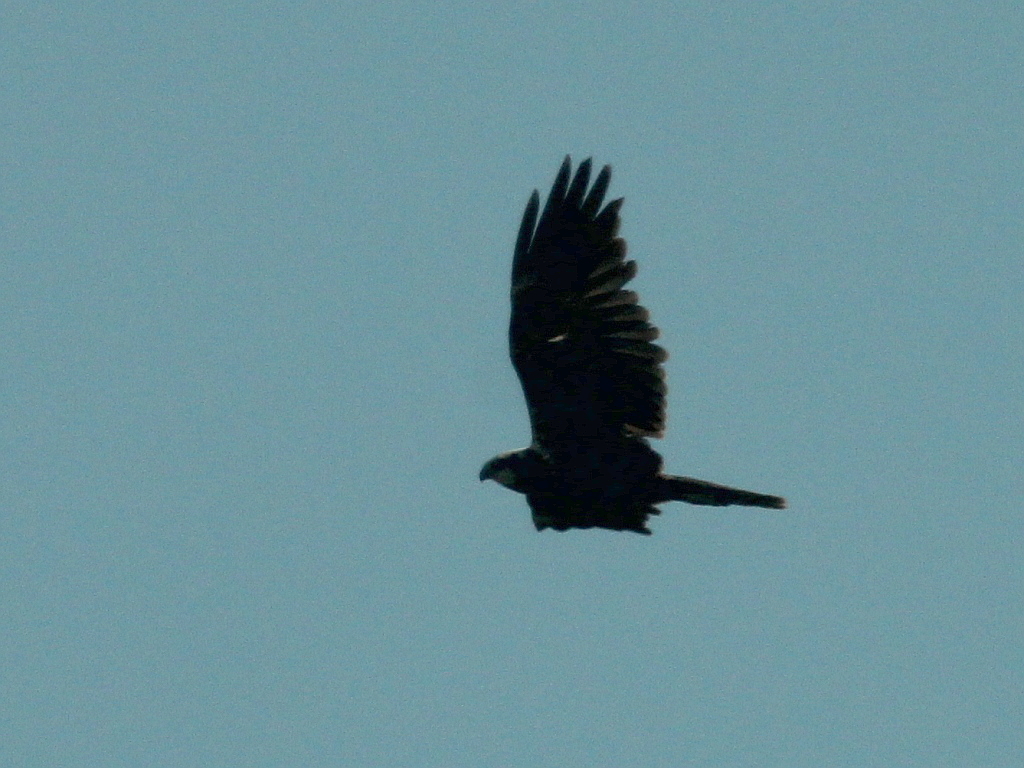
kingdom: Animalia
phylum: Chordata
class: Aves
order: Accipitriformes
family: Accipitridae
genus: Circus
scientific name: Circus aeruginosus
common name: Western marsh harrier
